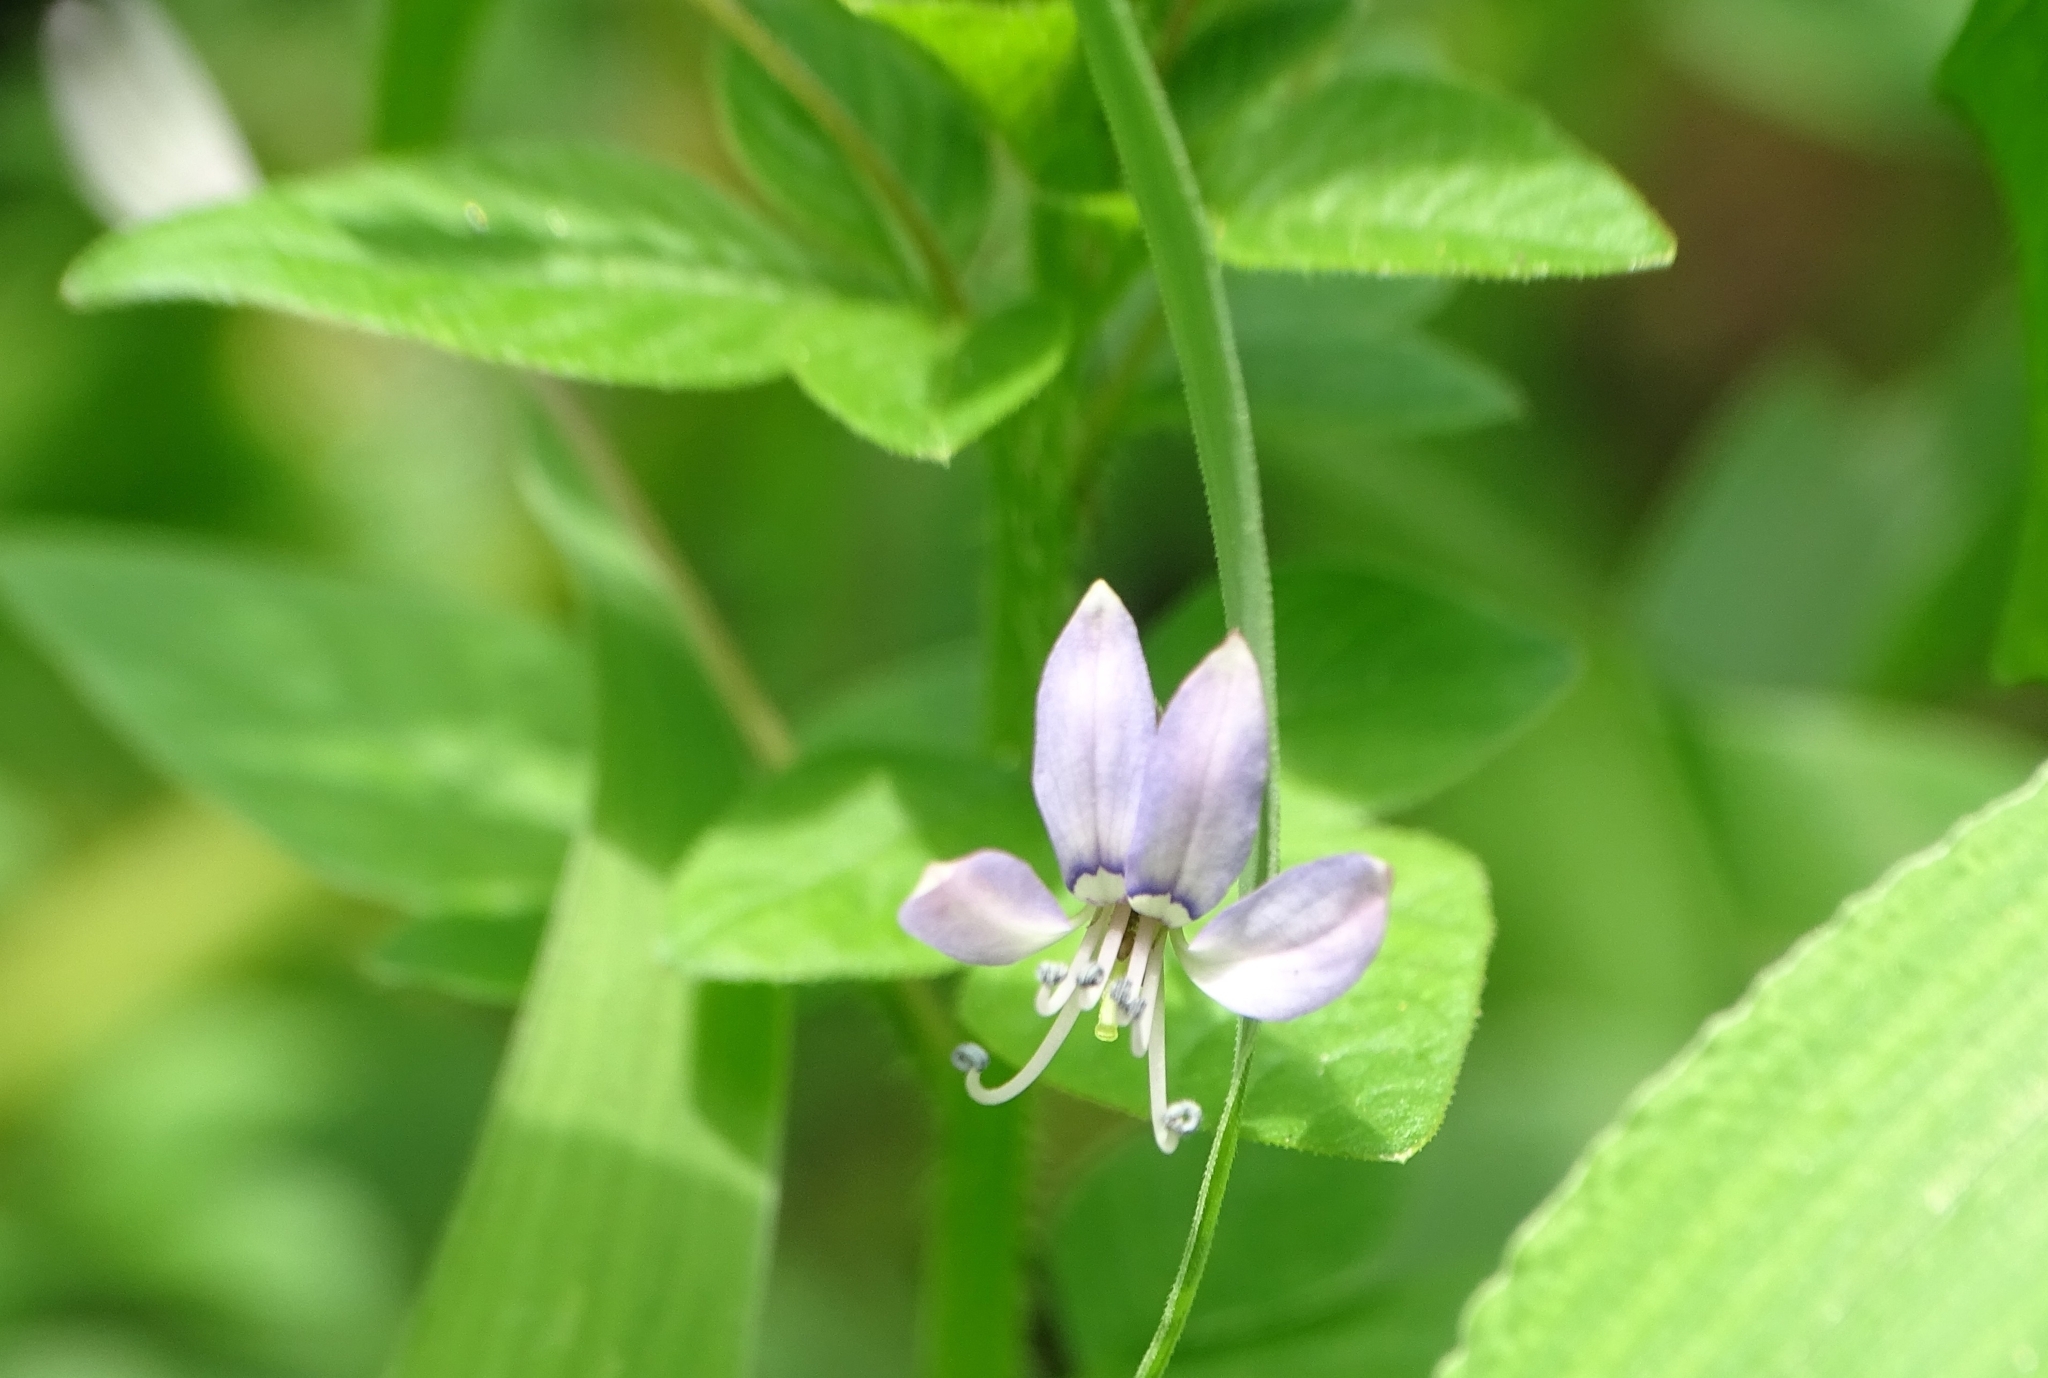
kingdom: Plantae
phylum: Tracheophyta
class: Magnoliopsida
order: Brassicales
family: Cleomaceae
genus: Sieruela
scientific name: Sieruela rutidosperma
